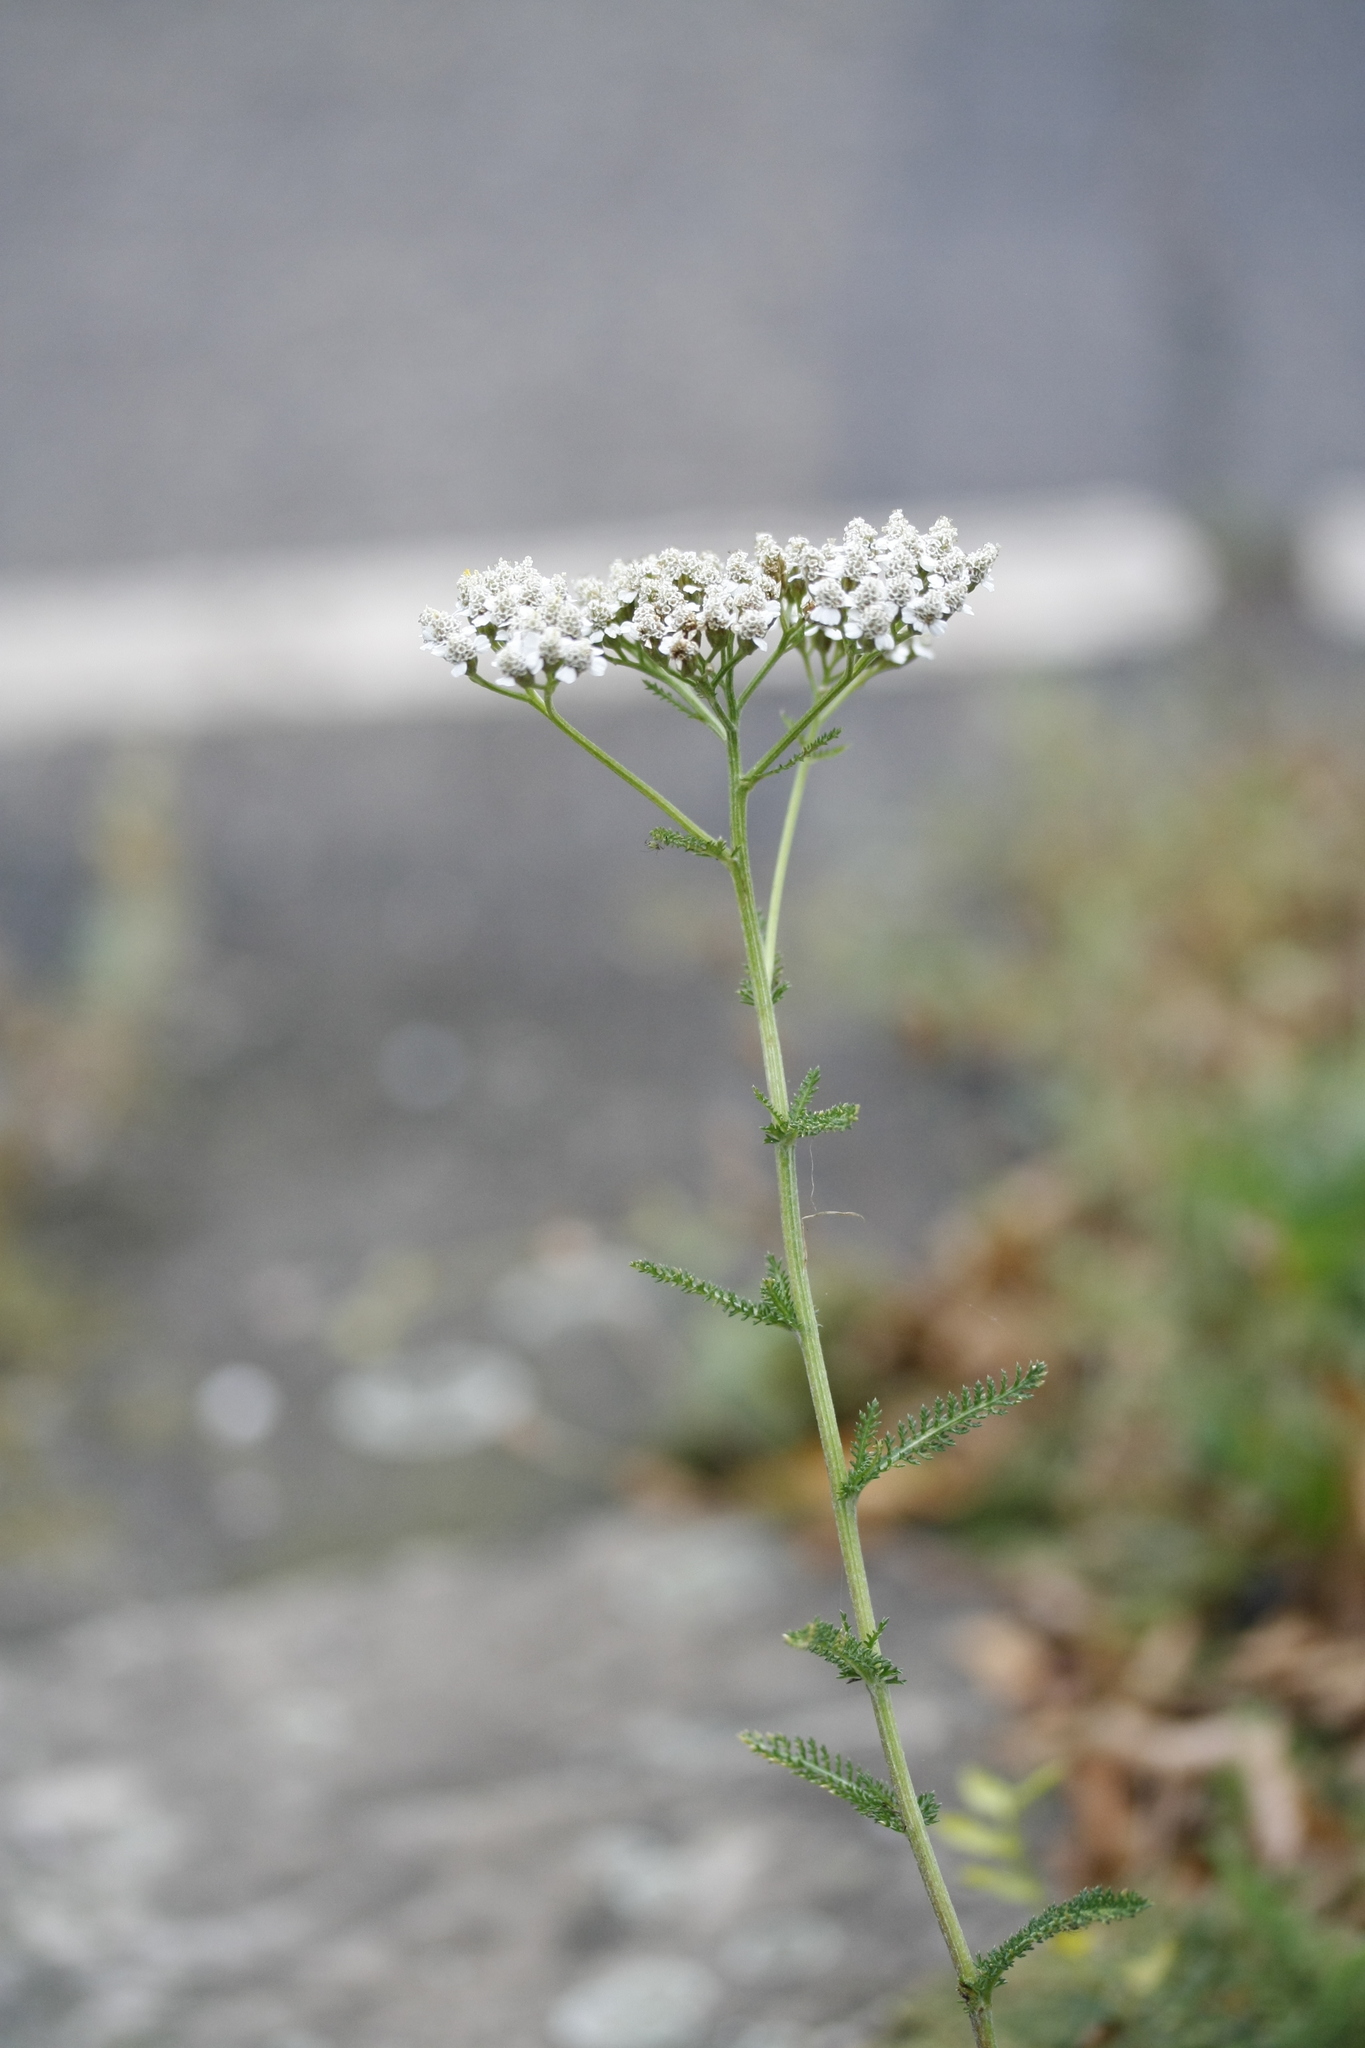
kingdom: Plantae
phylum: Tracheophyta
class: Magnoliopsida
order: Asterales
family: Asteraceae
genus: Achillea
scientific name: Achillea millefolium
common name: Yarrow
